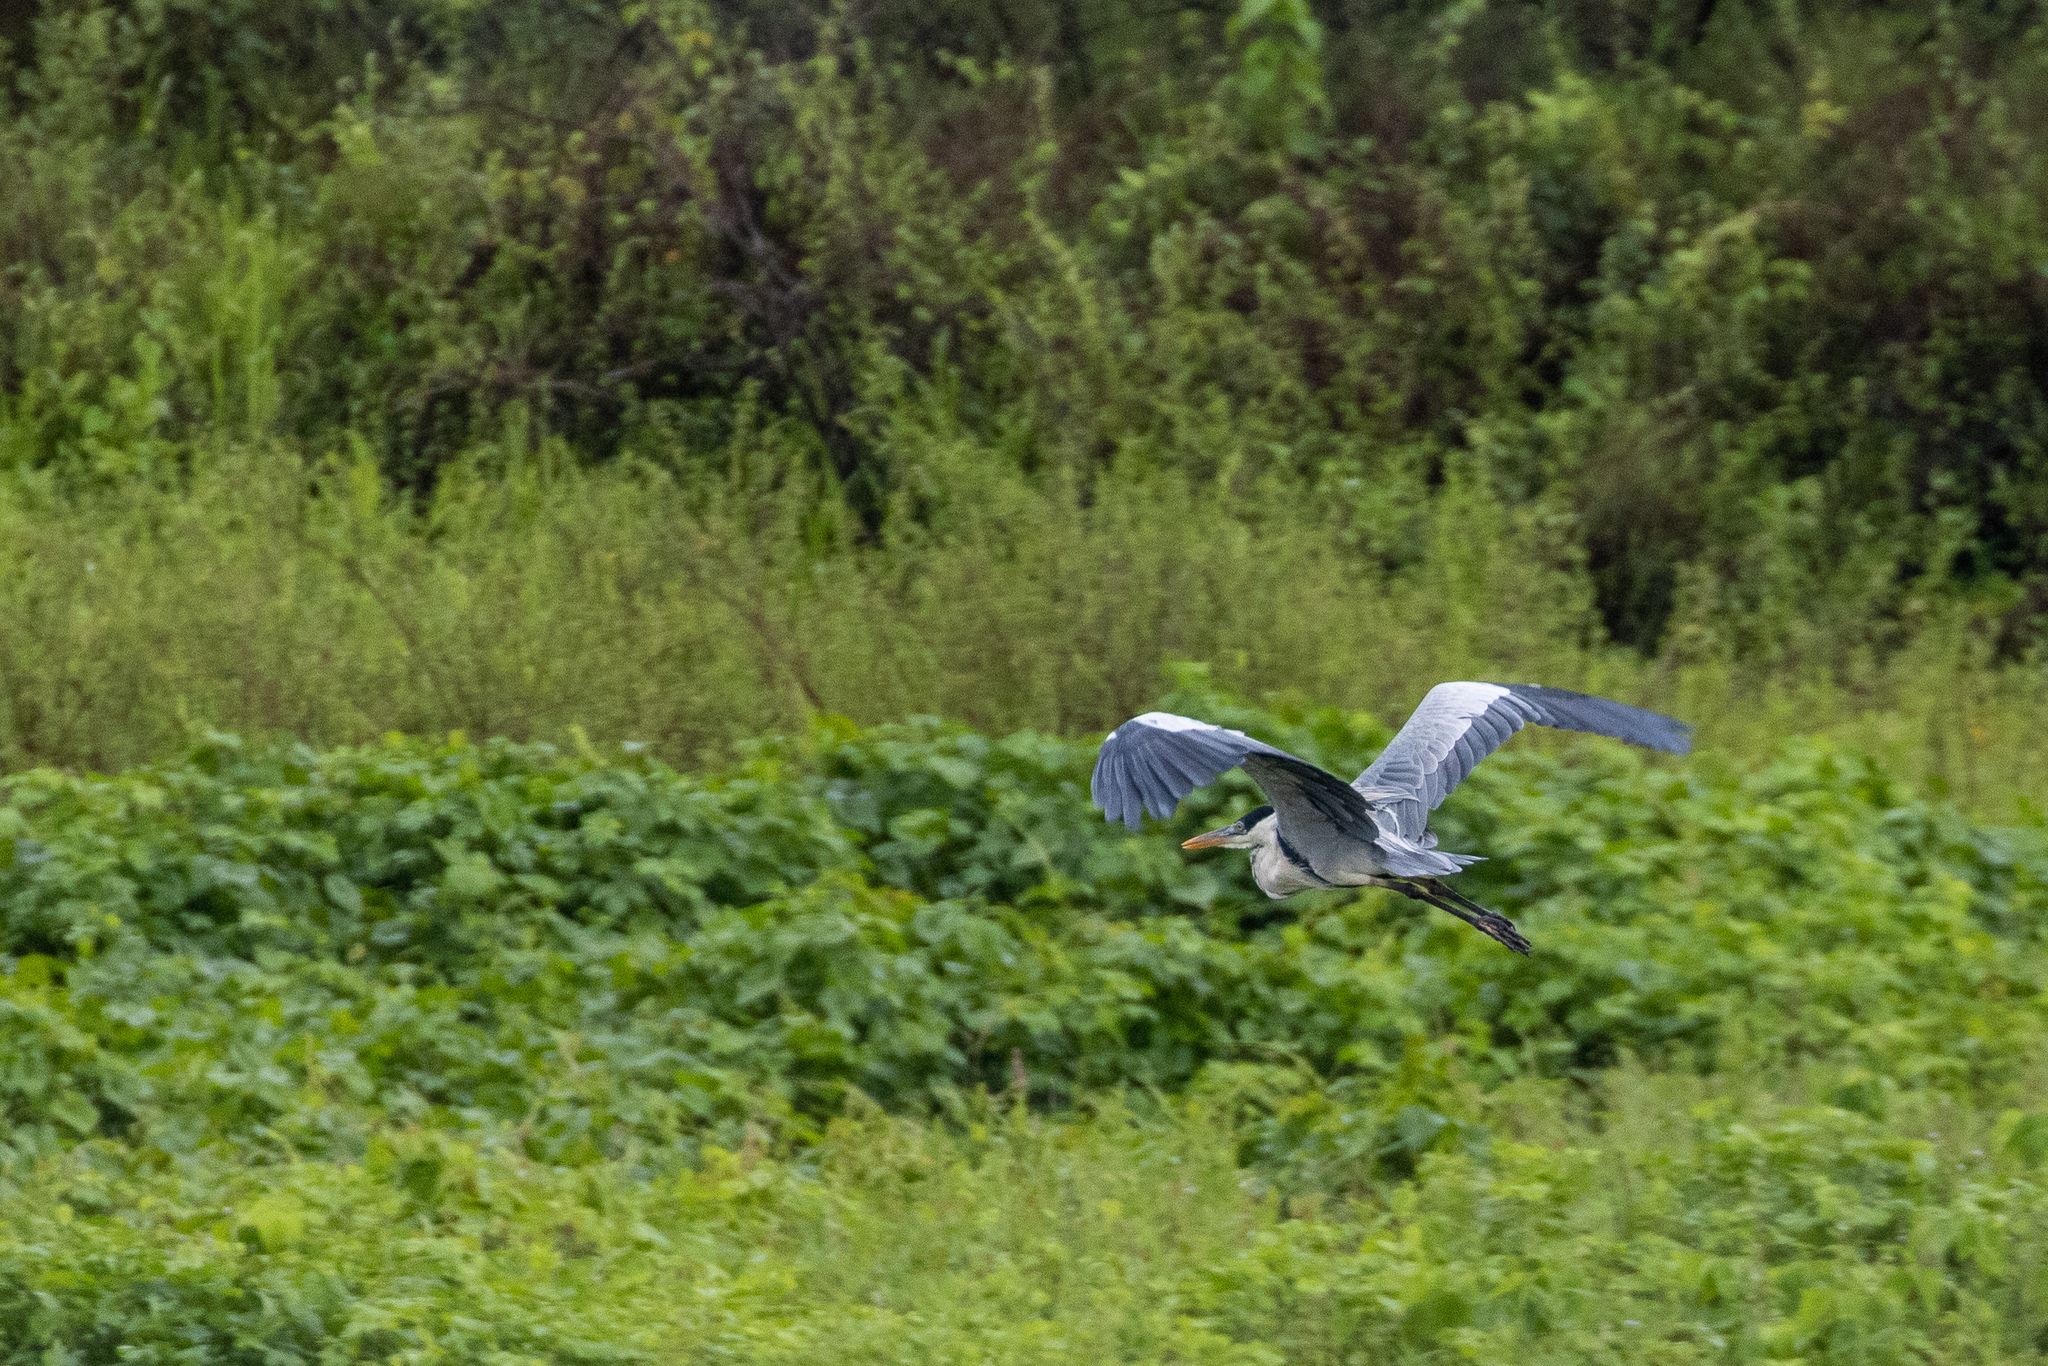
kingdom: Animalia
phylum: Chordata
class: Aves
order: Pelecaniformes
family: Ardeidae
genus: Ardea
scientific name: Ardea cocoi
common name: Cocoi heron
